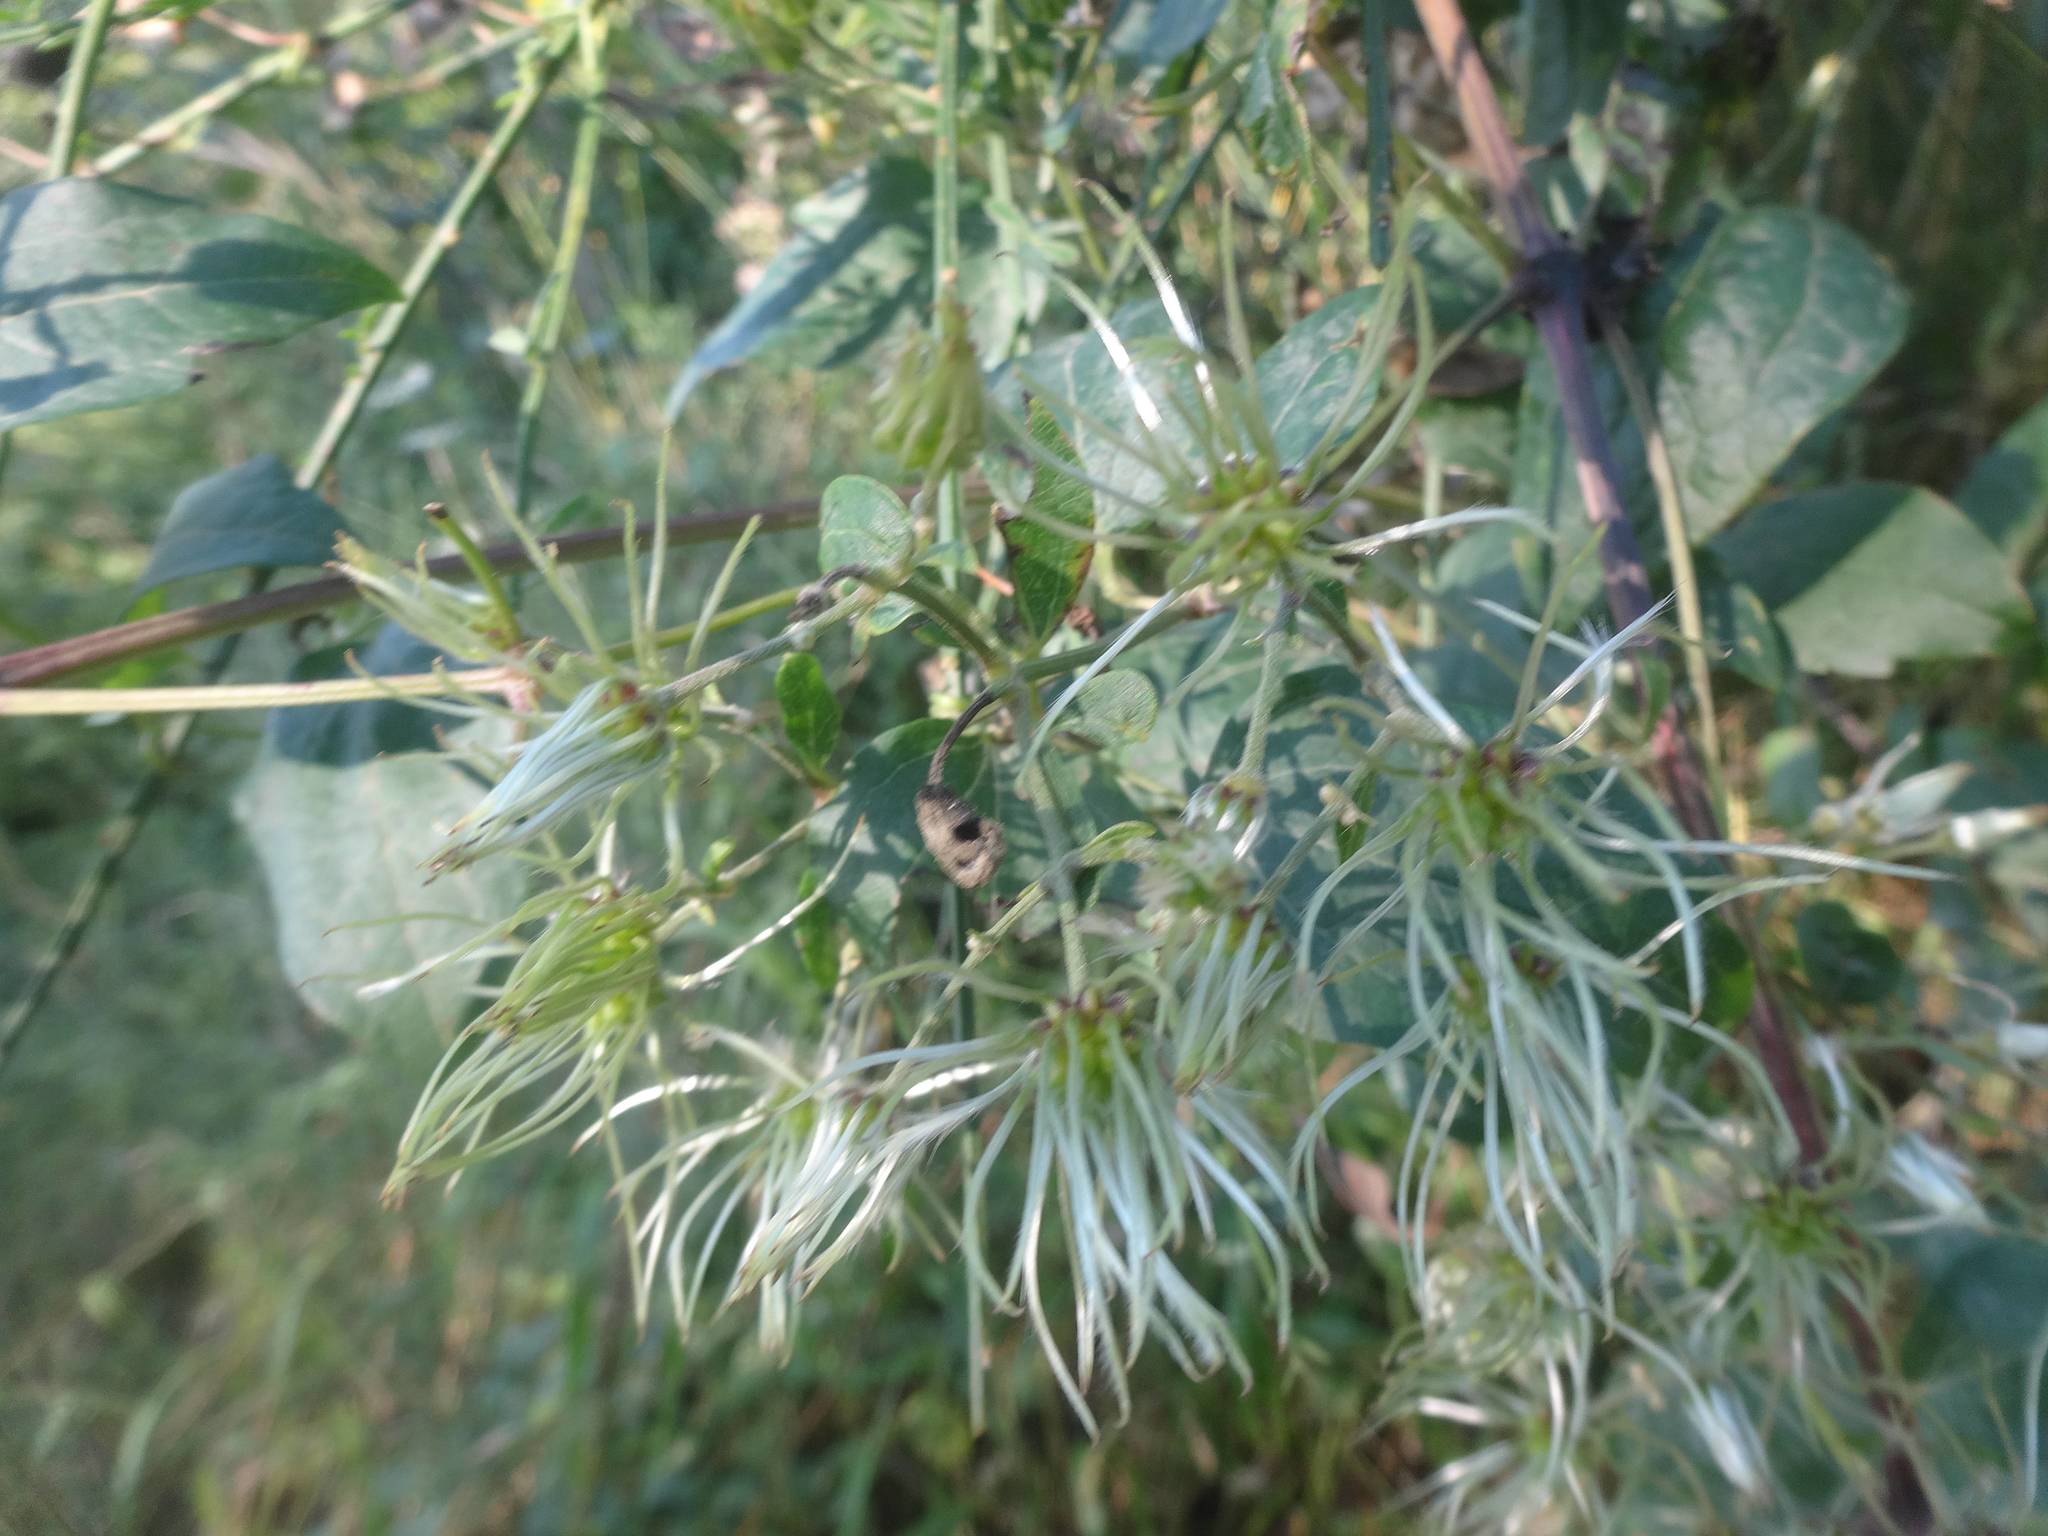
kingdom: Plantae
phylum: Tracheophyta
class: Magnoliopsida
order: Ranunculales
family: Ranunculaceae
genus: Clematis
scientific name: Clematis vitalba
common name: Evergreen clematis
